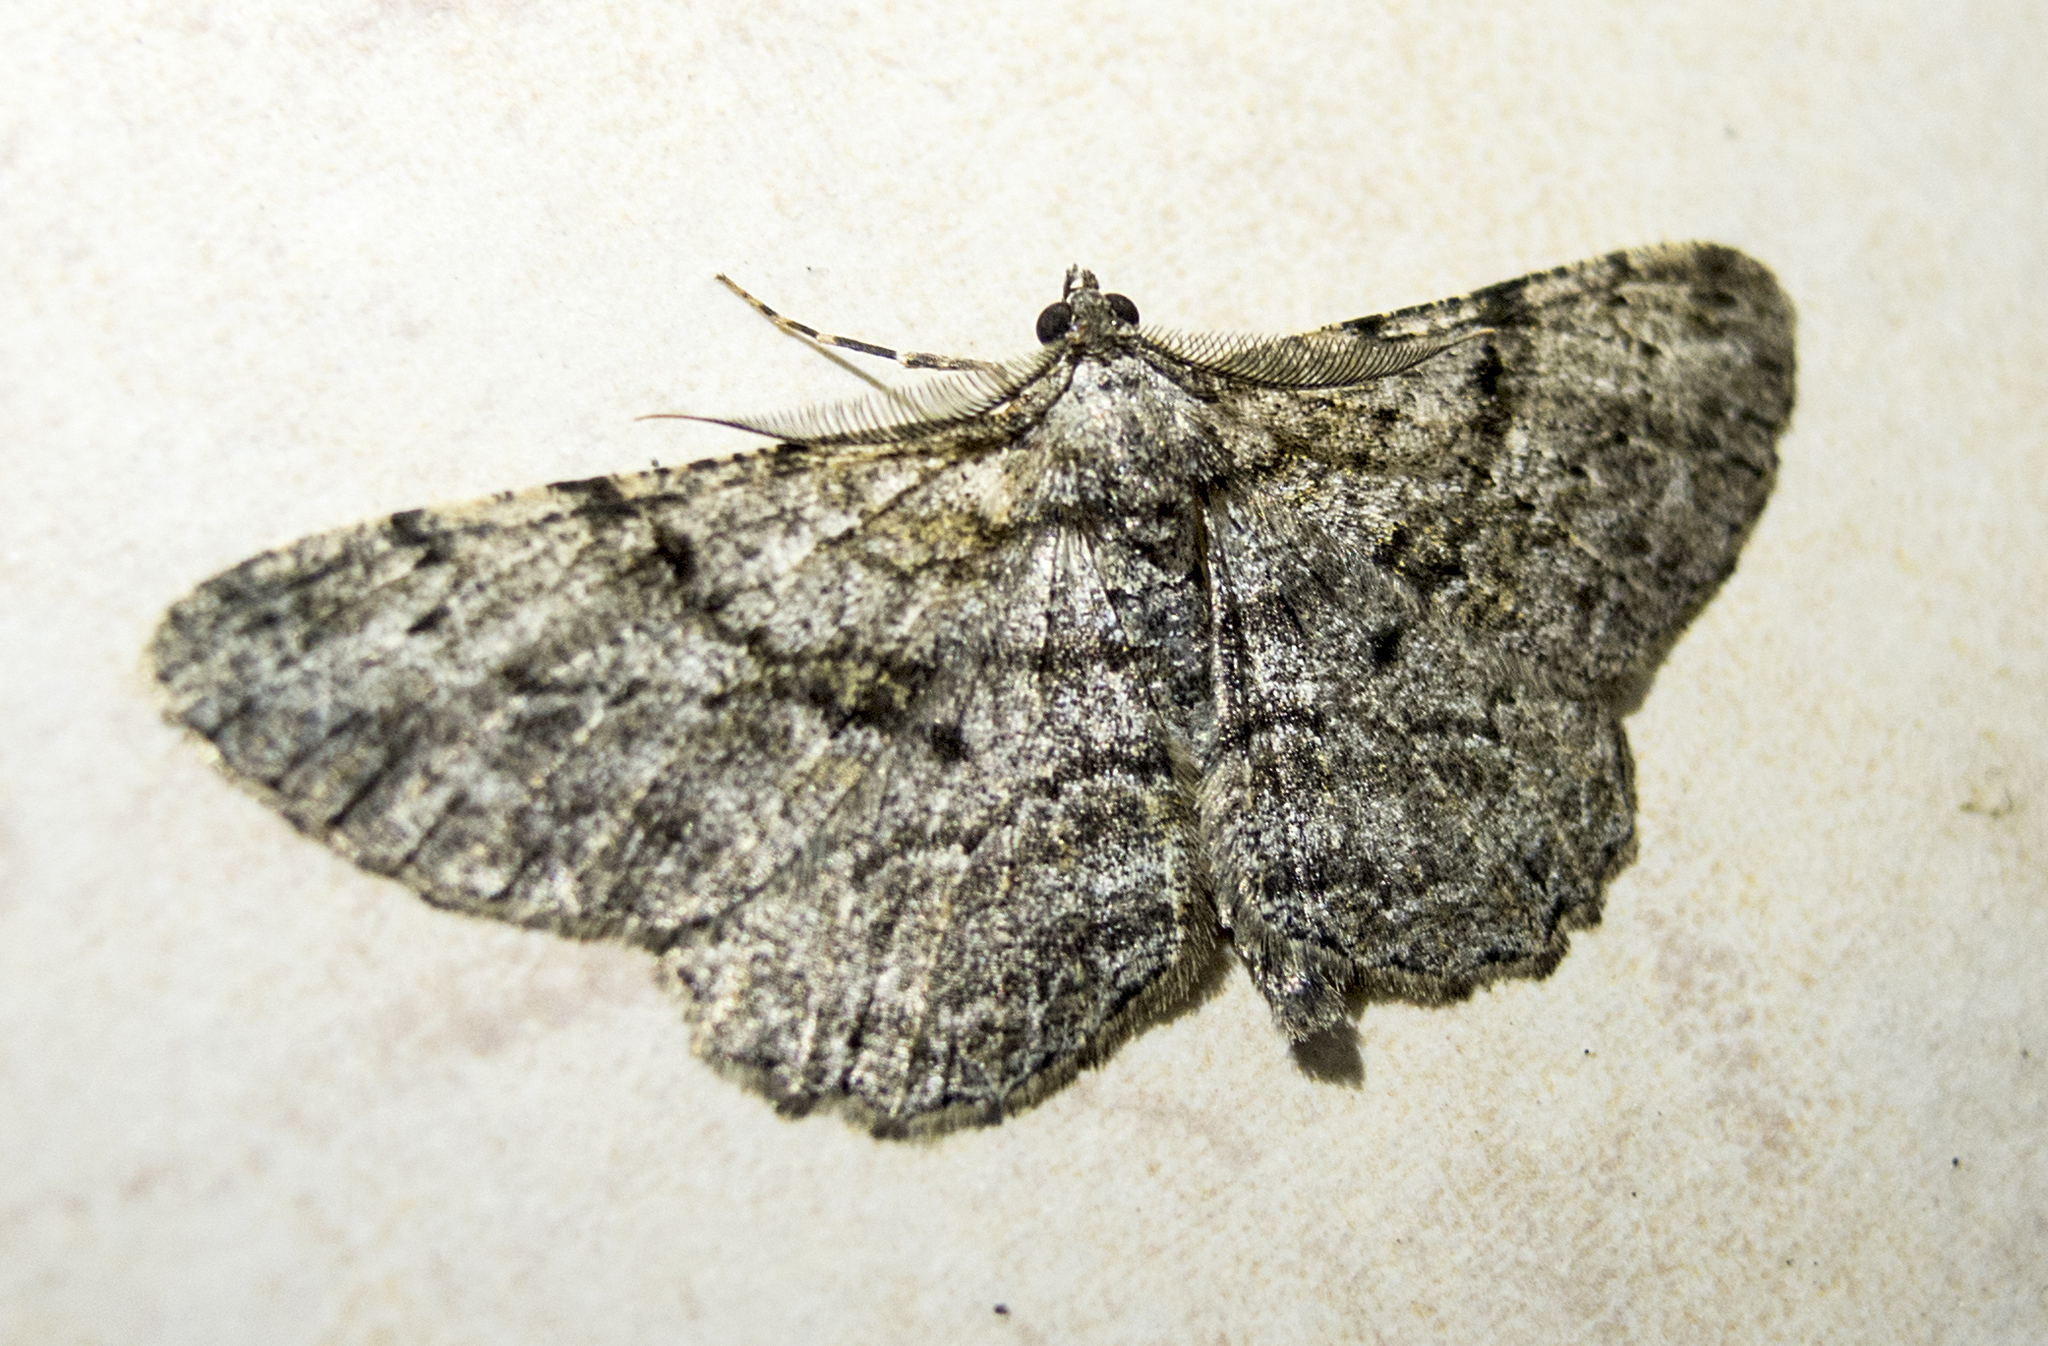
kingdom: Animalia
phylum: Arthropoda
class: Insecta
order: Lepidoptera
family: Geometridae
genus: Peribatodes
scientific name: Peribatodes rhomboidaria
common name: Willow beauty
